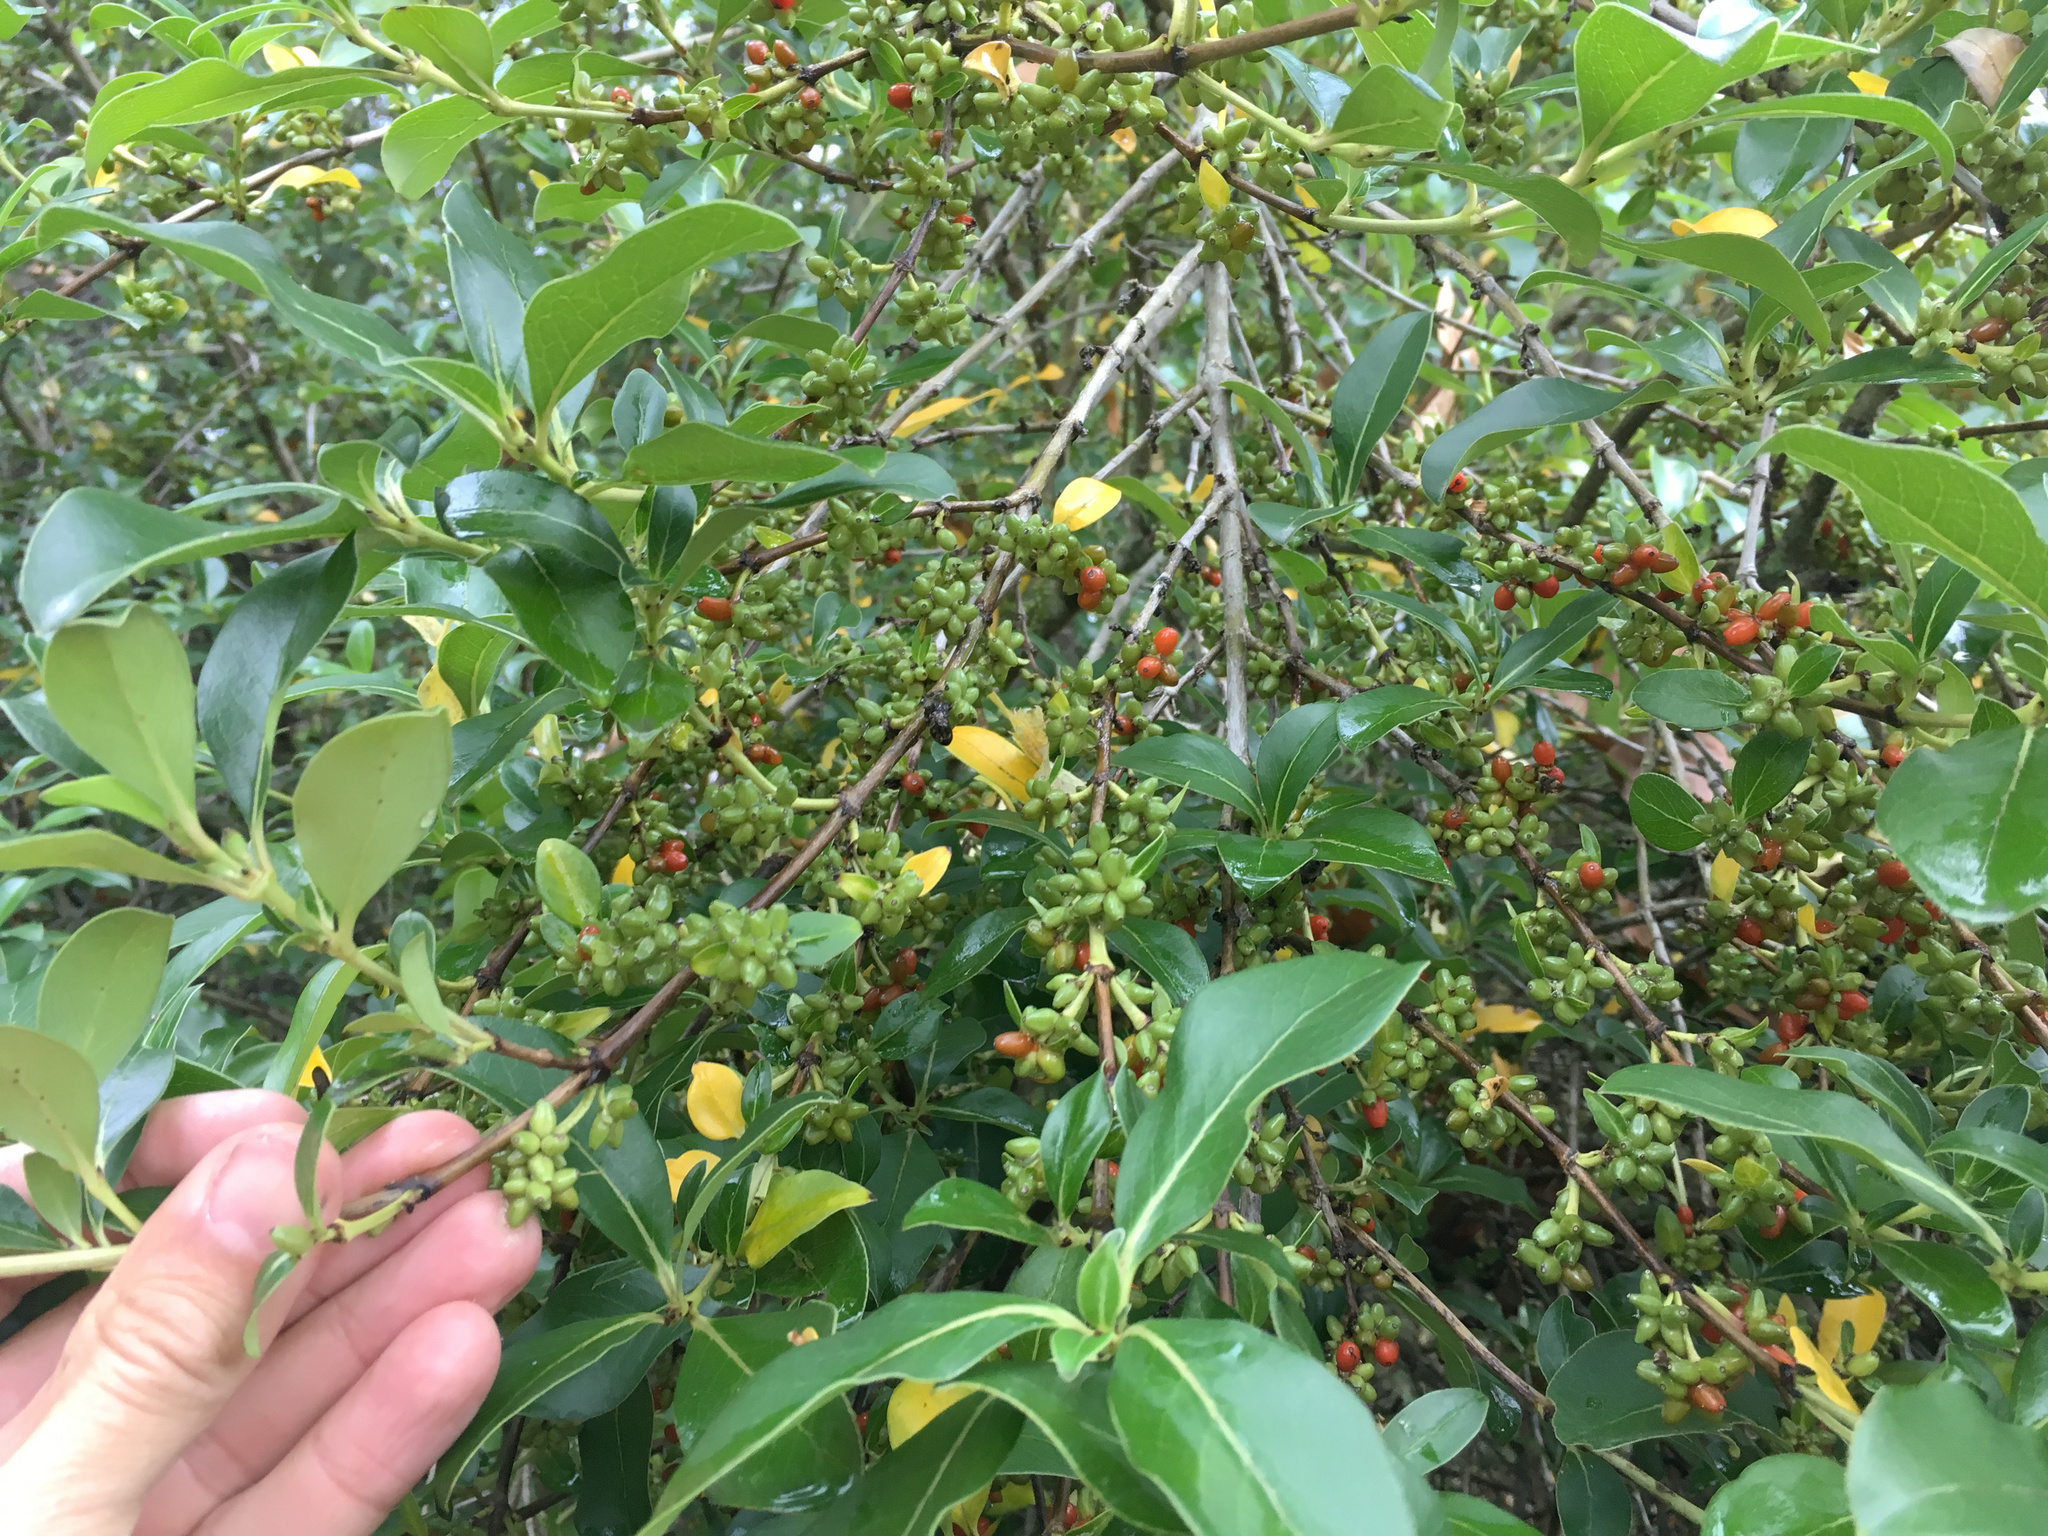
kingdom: Plantae
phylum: Tracheophyta
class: Magnoliopsida
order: Gentianales
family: Rubiaceae
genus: Coprosma
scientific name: Coprosma robusta
